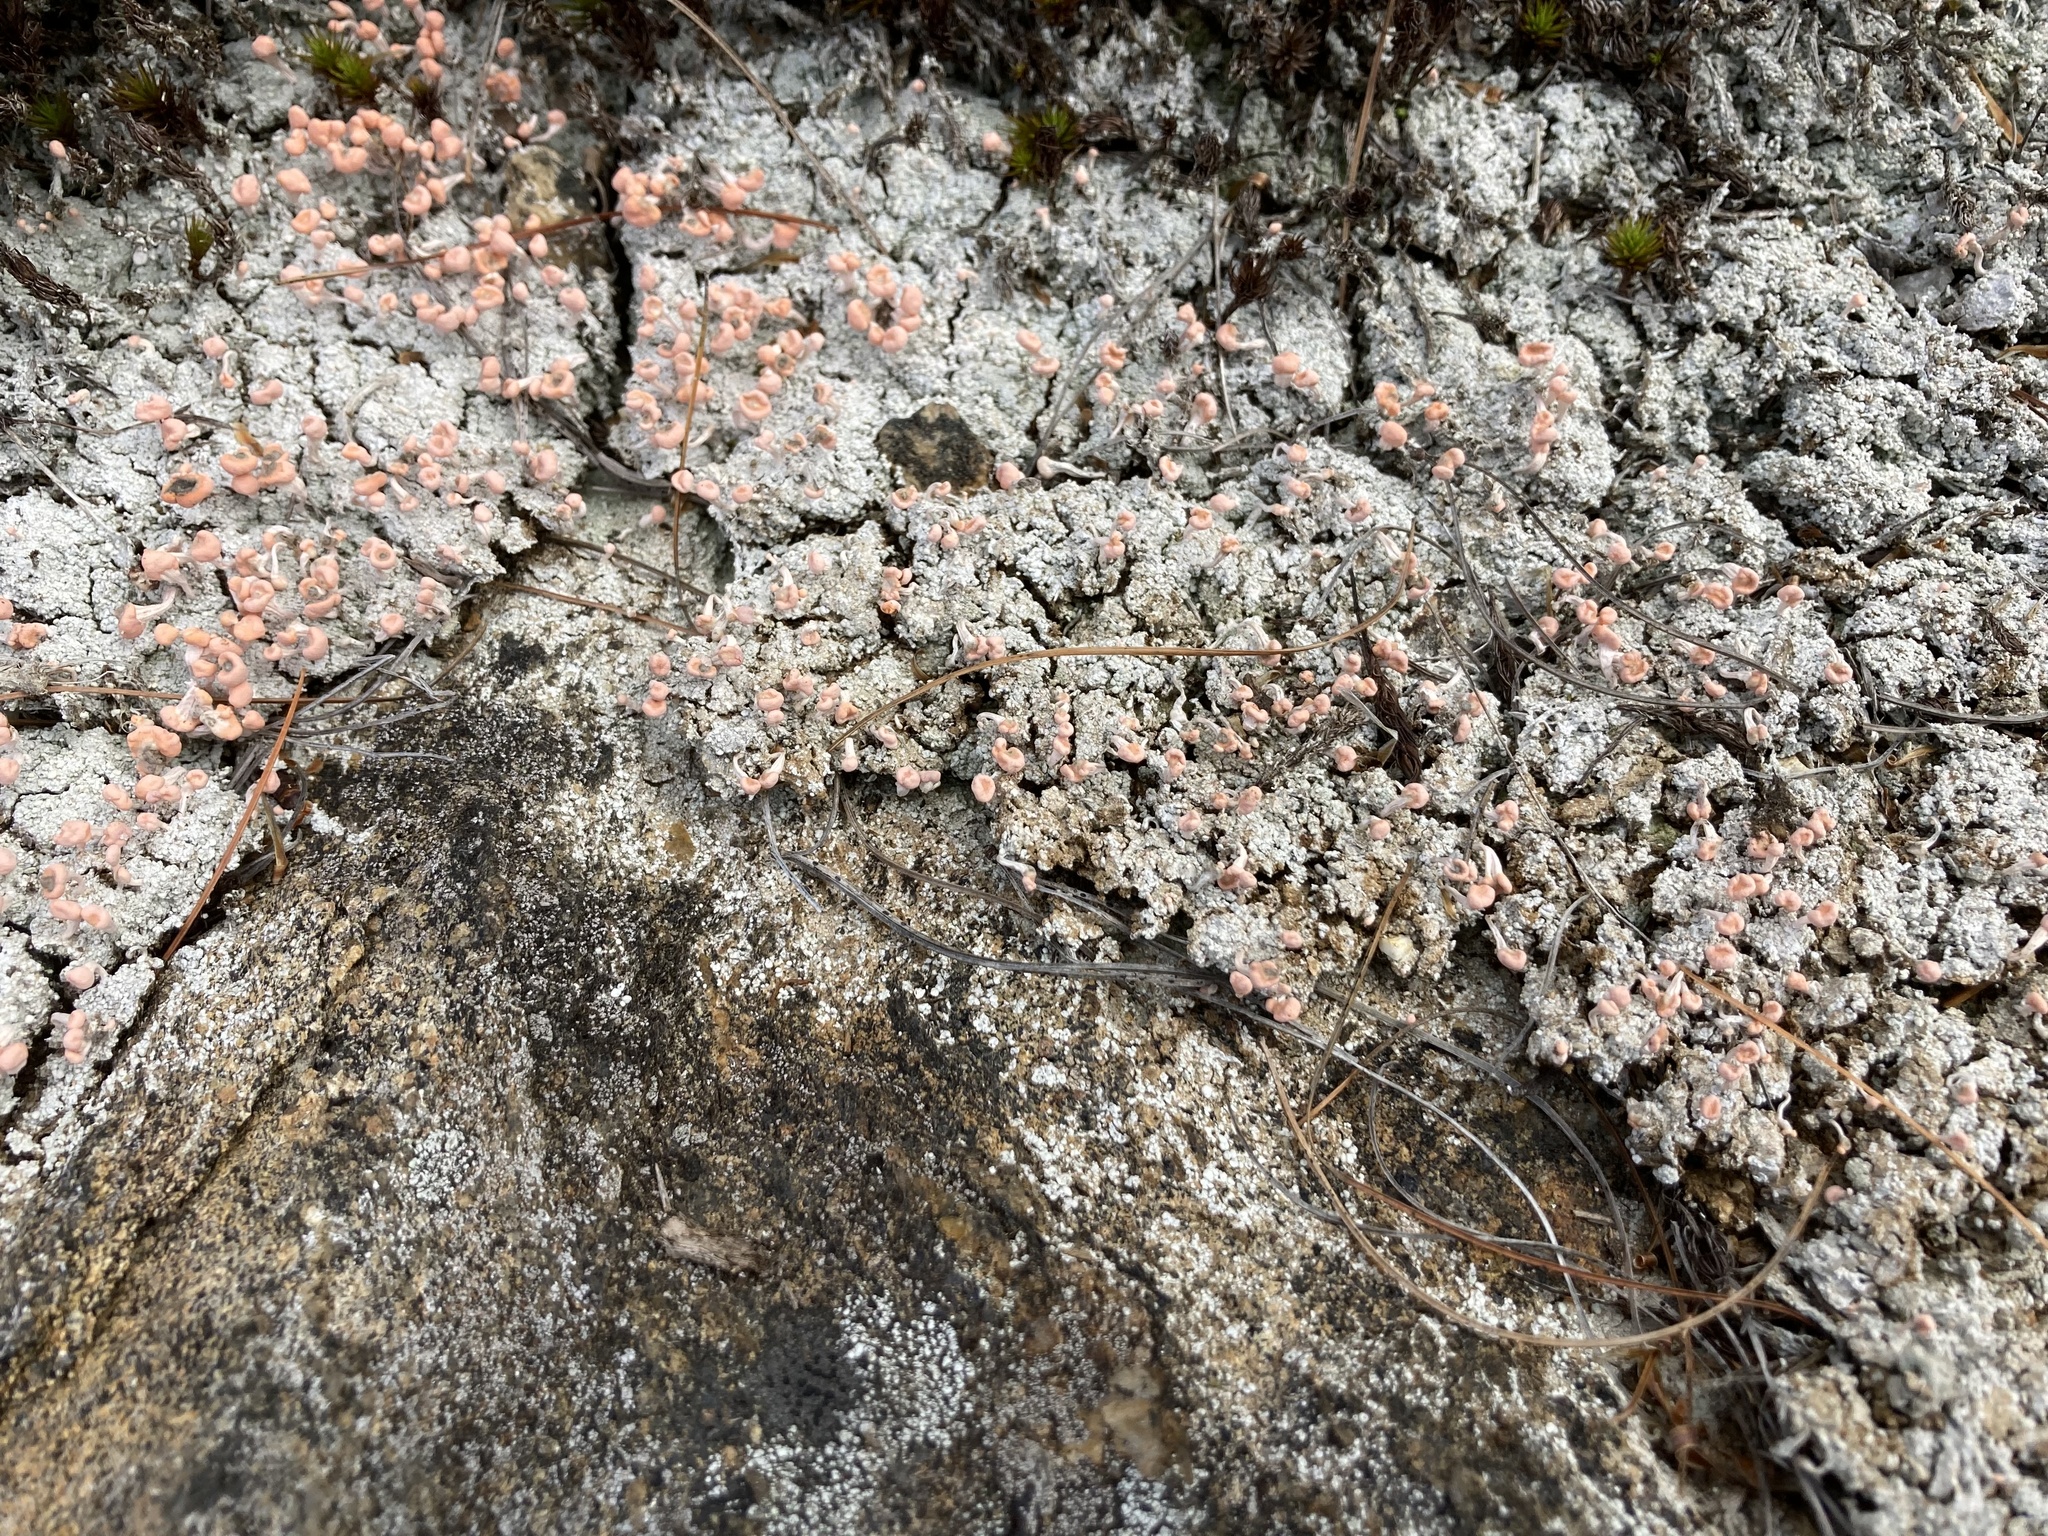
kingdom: Fungi
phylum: Ascomycota
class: Lecanoromycetes
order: Pertusariales
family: Icmadophilaceae
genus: Dibaeis
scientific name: Dibaeis baeomyces
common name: Pink earth lichen
